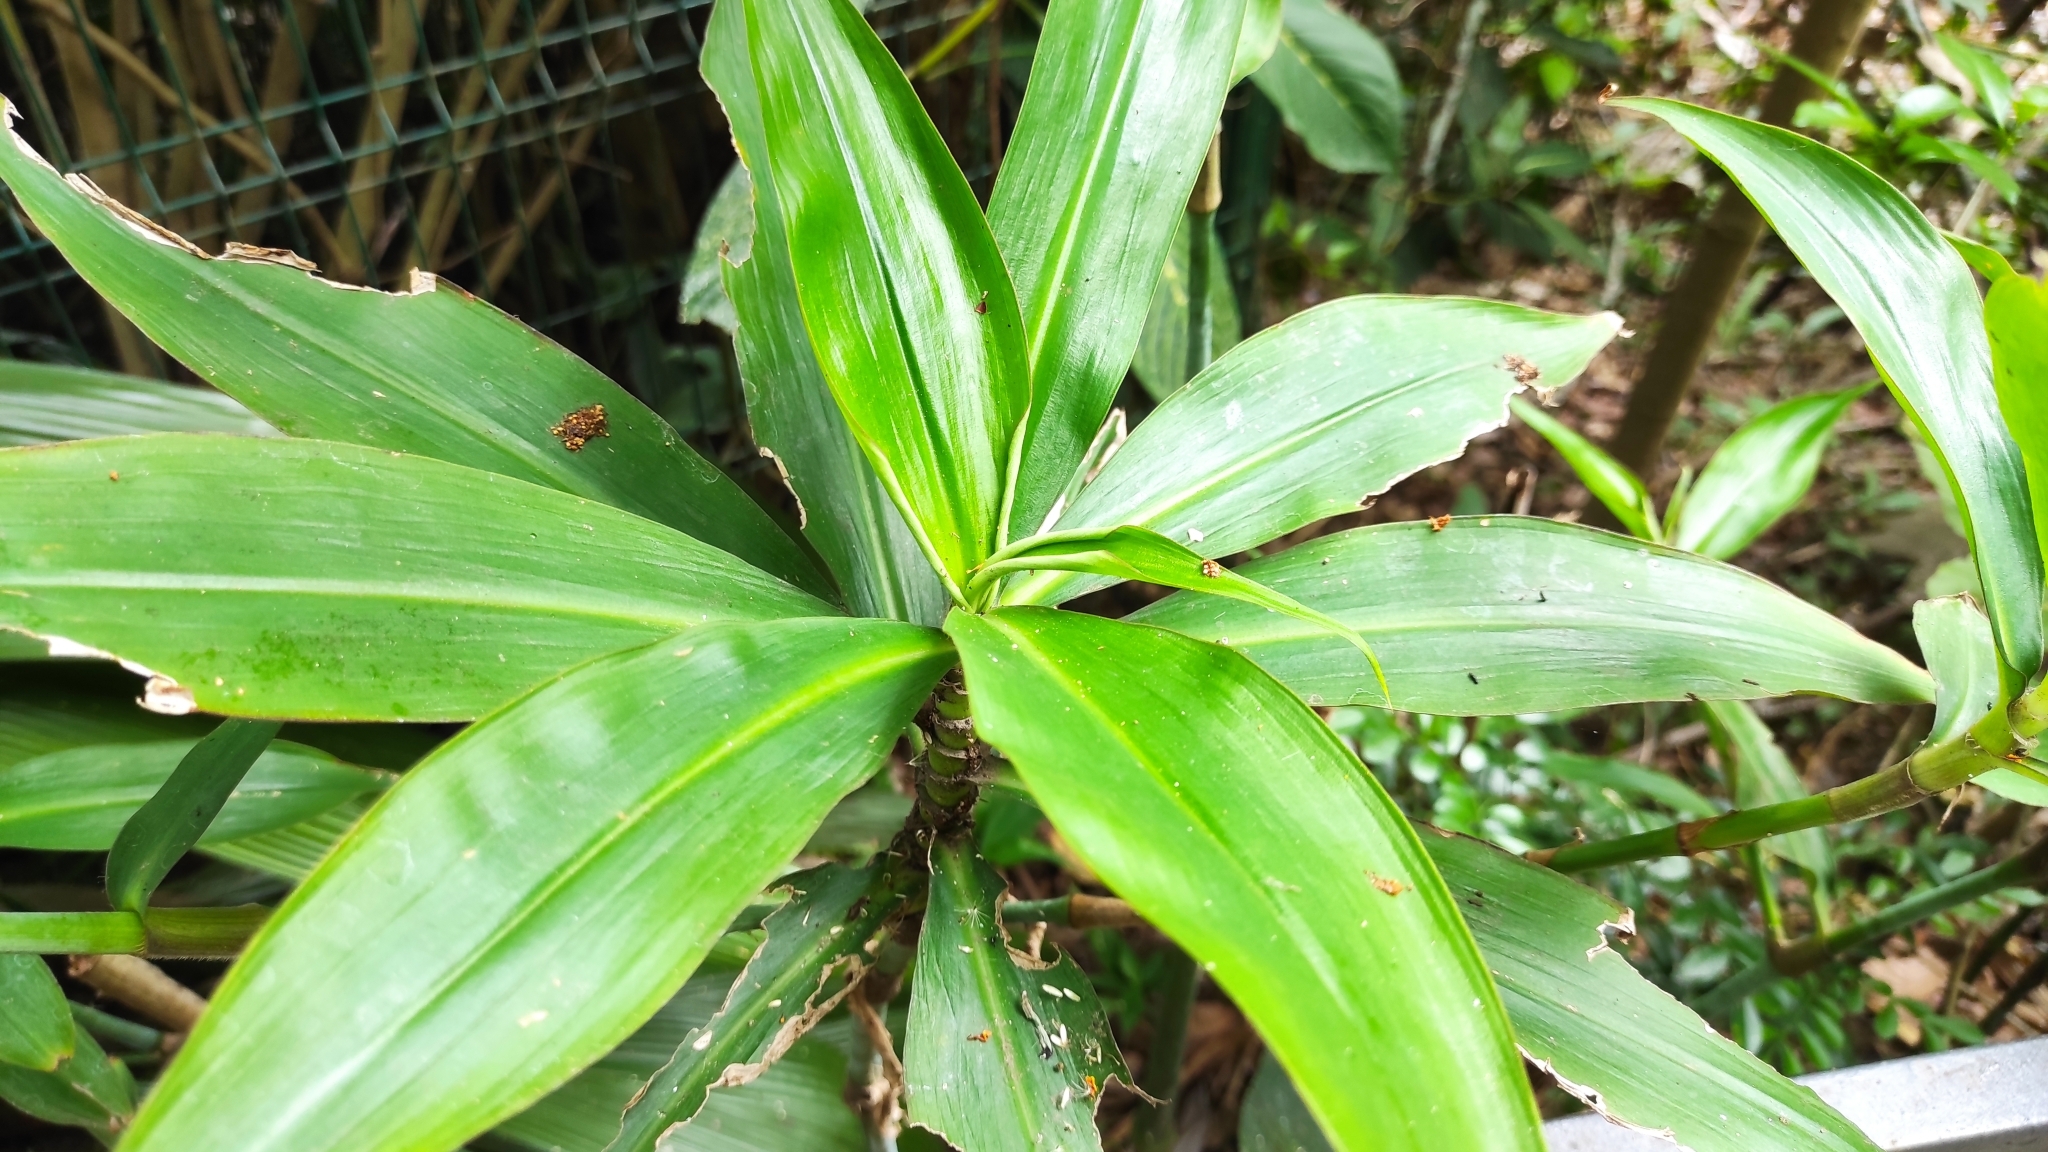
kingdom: Plantae
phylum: Tracheophyta
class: Liliopsida
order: Commelinales
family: Commelinaceae
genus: Tradescantia
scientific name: Tradescantia zanonia
